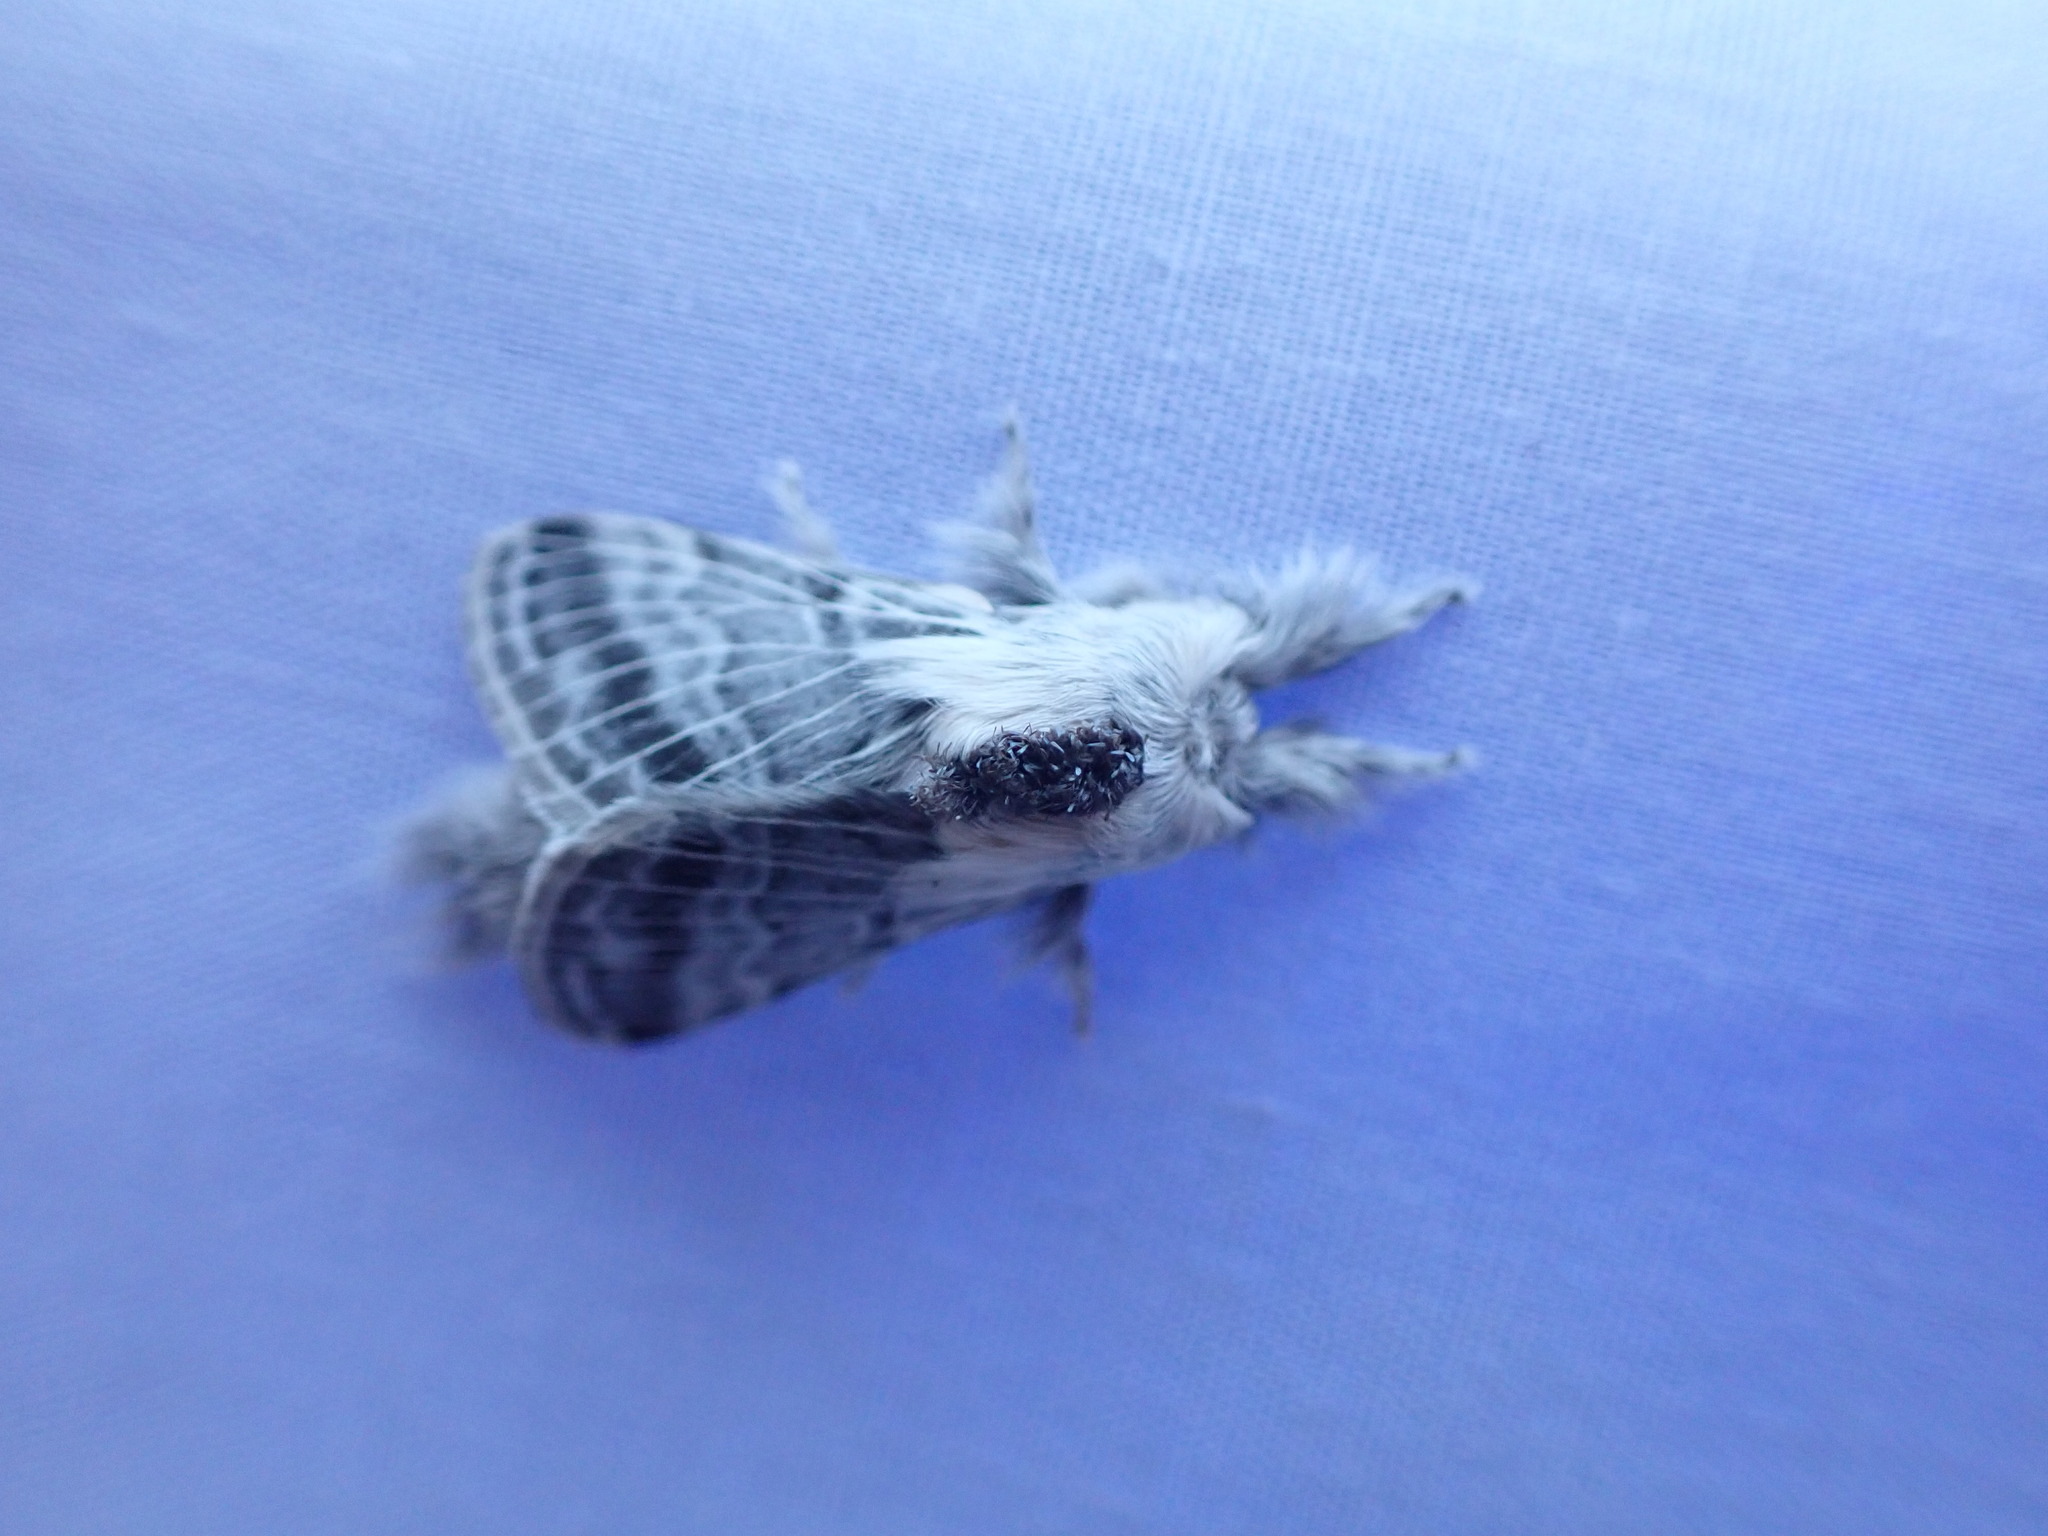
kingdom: Animalia
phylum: Arthropoda
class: Insecta
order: Lepidoptera
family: Lasiocampidae
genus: Tolype
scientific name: Tolype distincta
